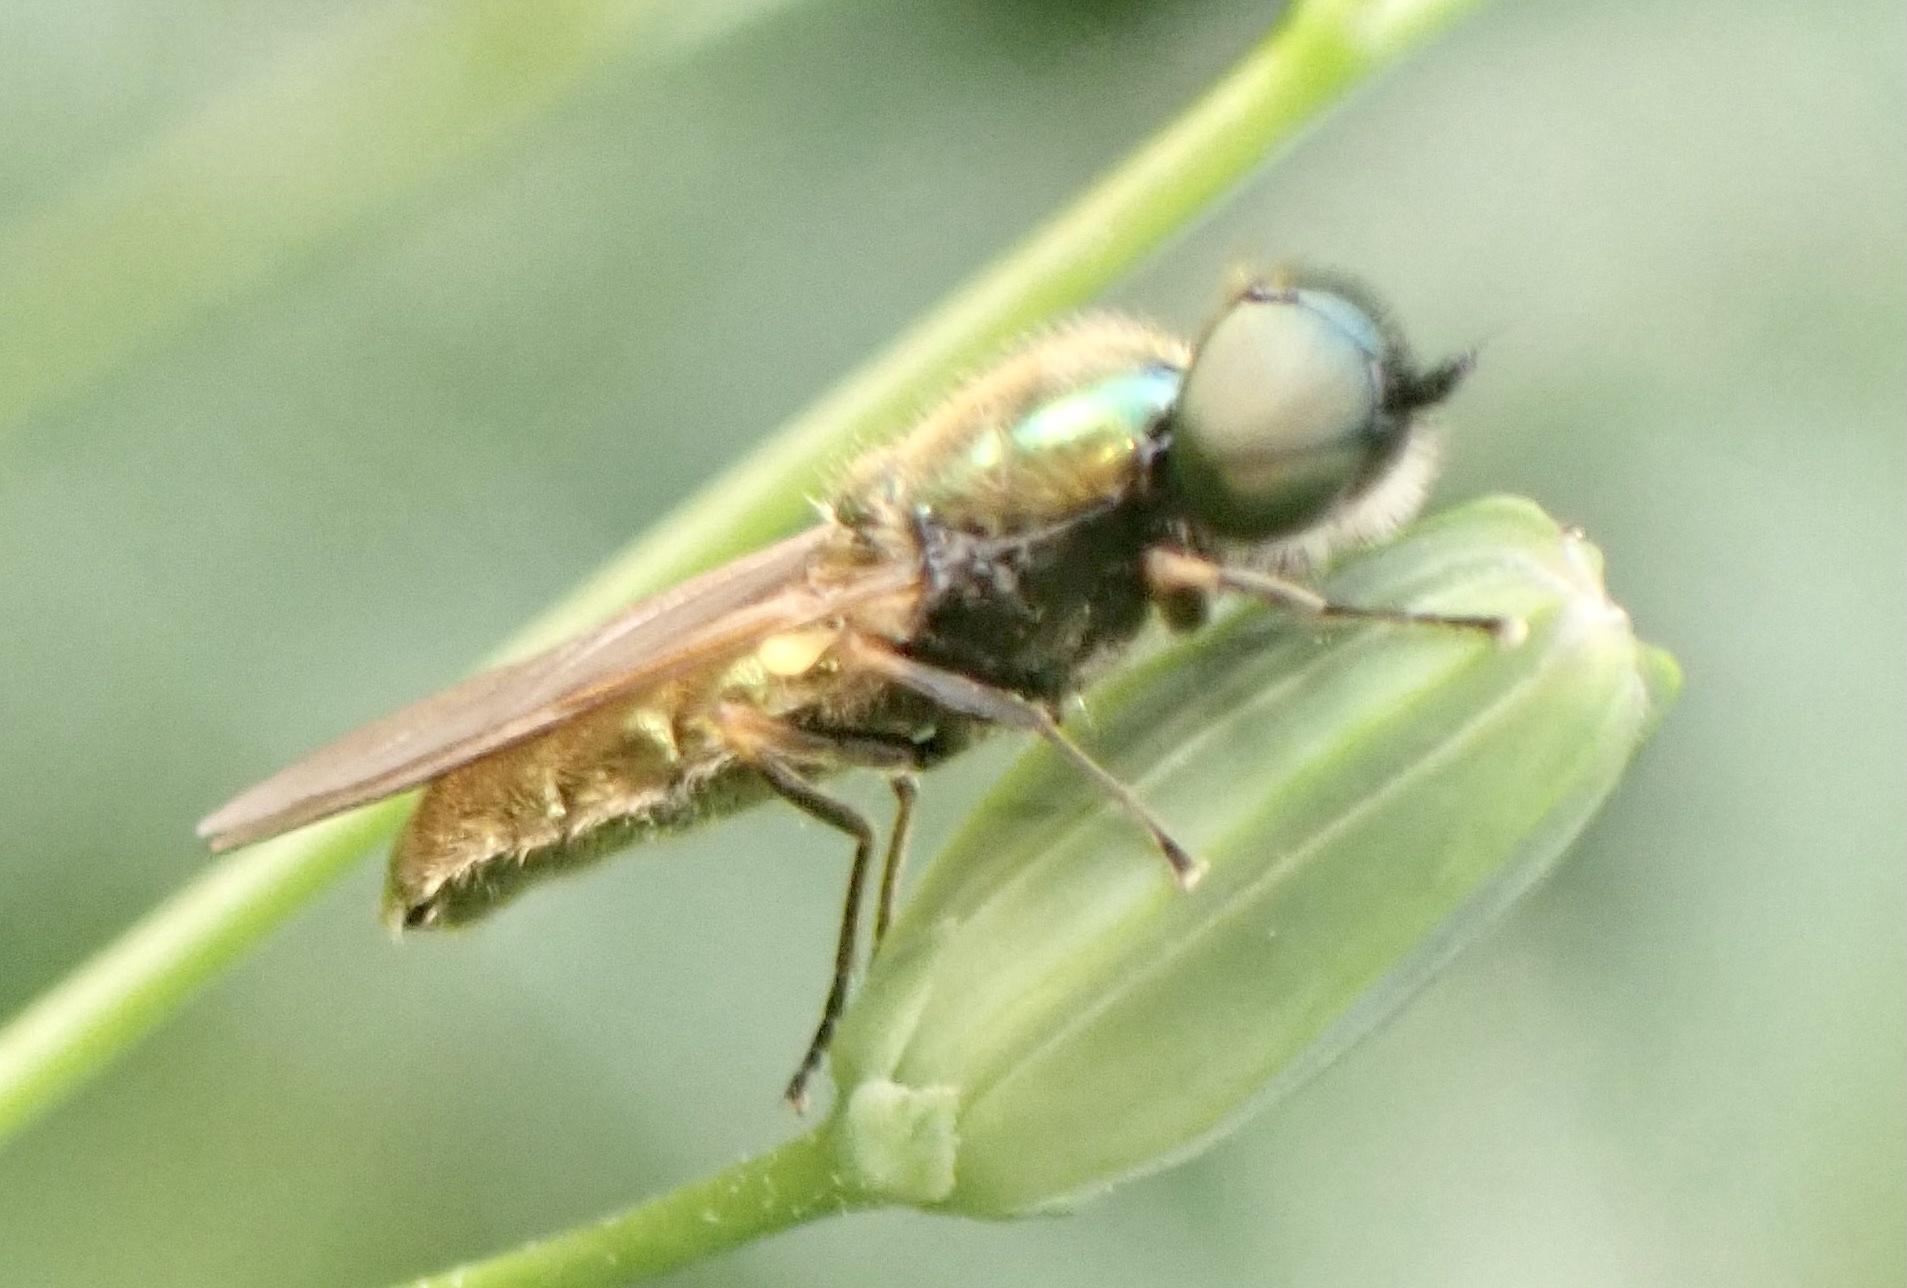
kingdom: Animalia
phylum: Arthropoda
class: Insecta
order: Diptera
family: Stratiomyidae
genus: Chloromyia
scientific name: Chloromyia formosa
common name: Soldier fly
